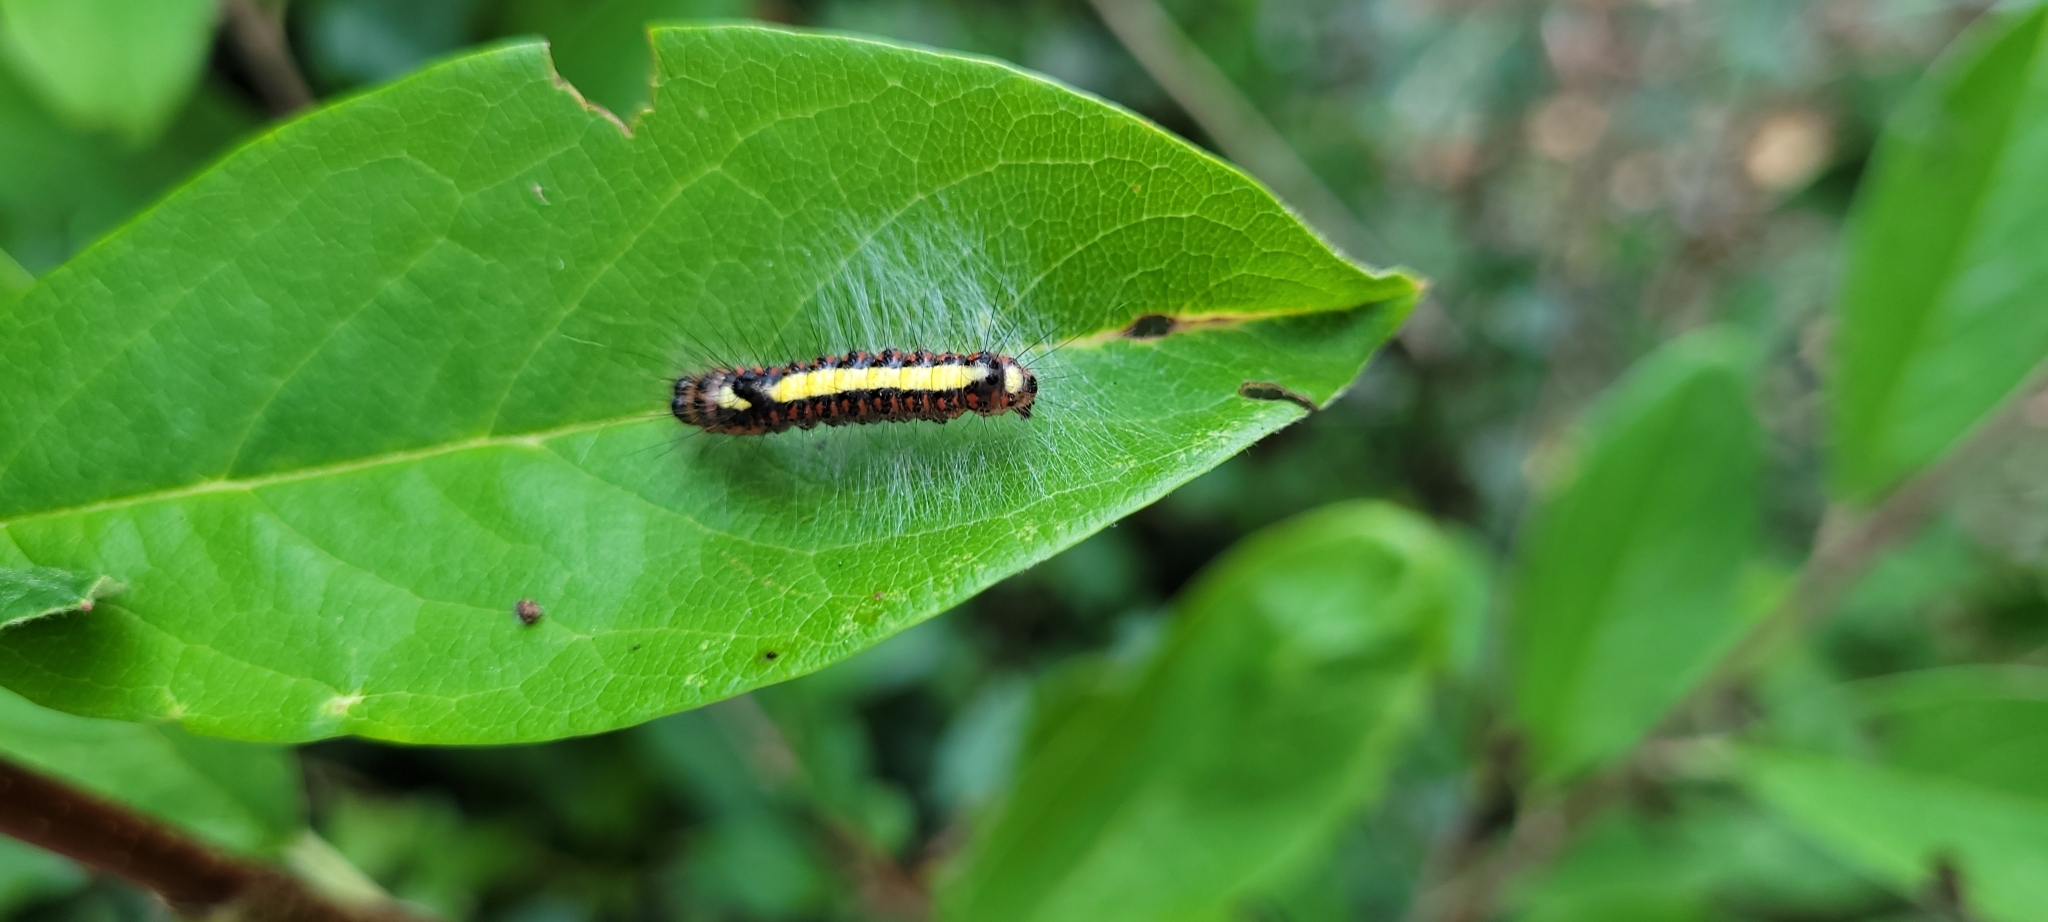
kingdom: Animalia
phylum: Arthropoda
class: Insecta
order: Lepidoptera
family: Noctuidae
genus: Acronicta
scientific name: Acronicta psi
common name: Grey dagger
